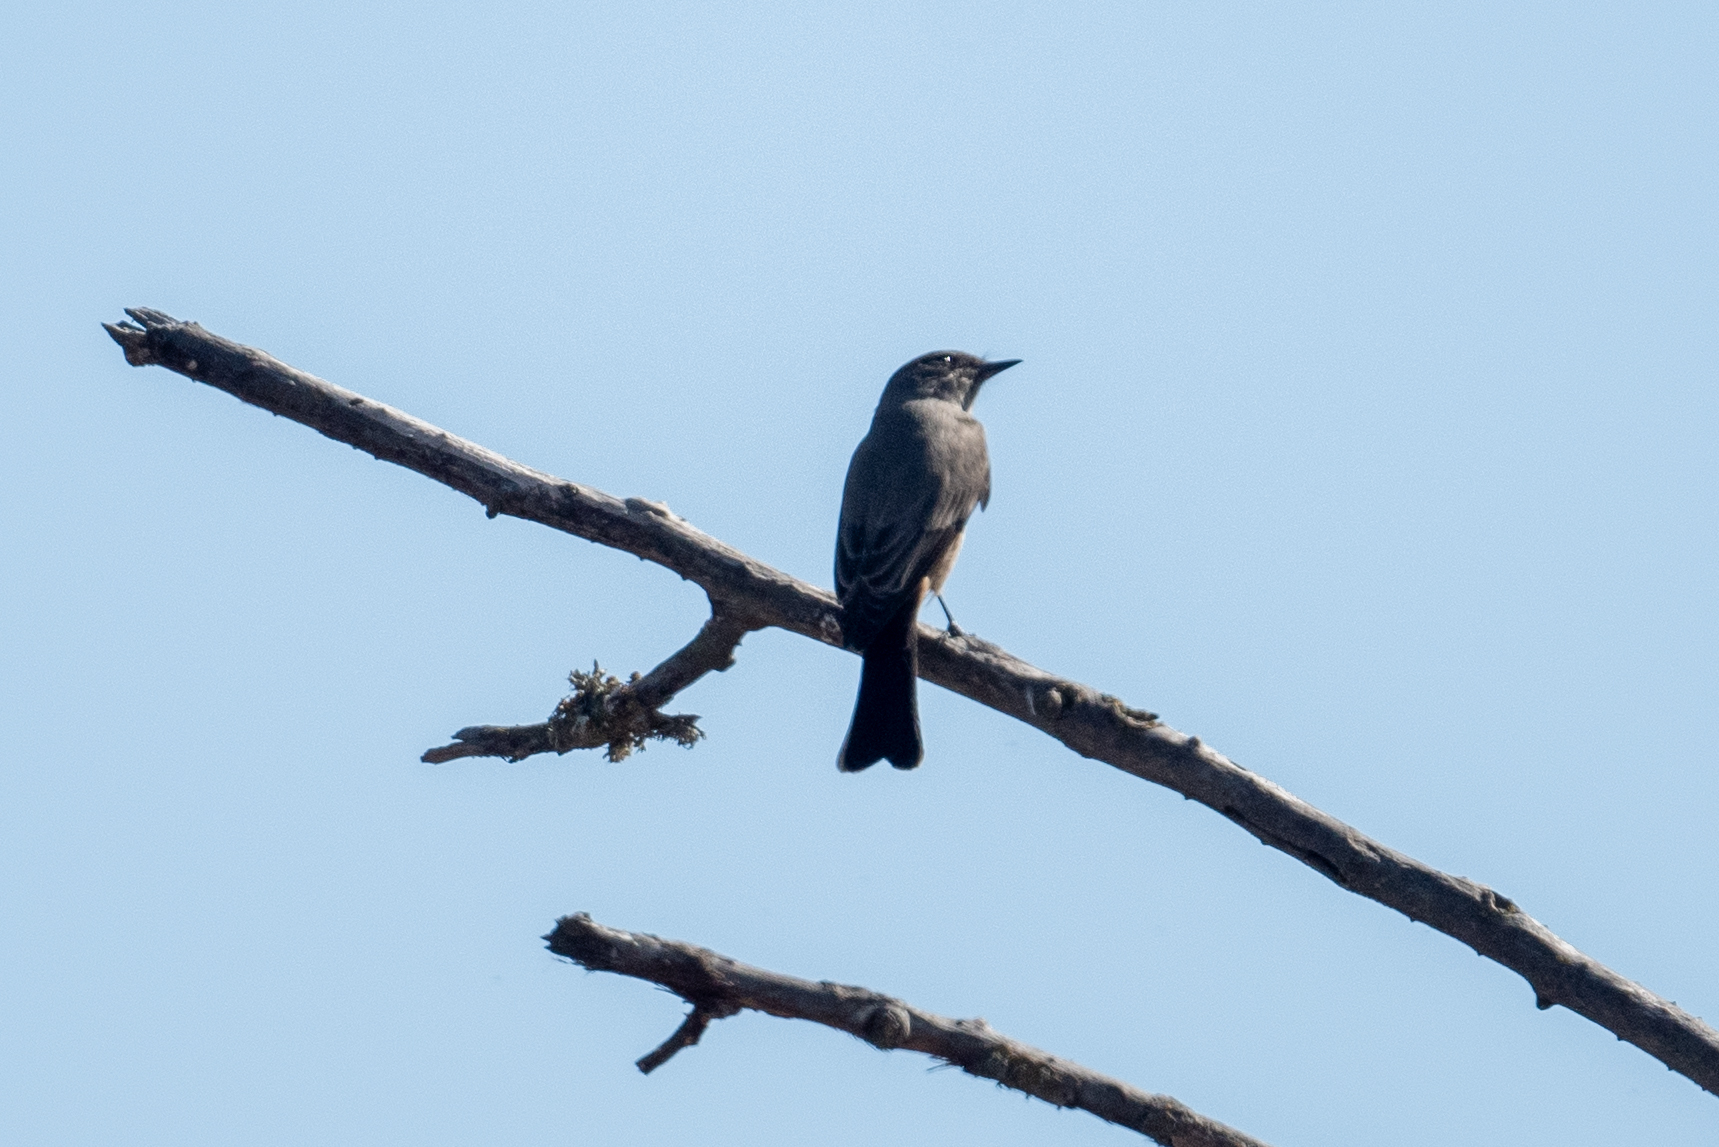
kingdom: Animalia
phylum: Chordata
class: Aves
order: Passeriformes
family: Tyrannidae
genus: Sayornis
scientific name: Sayornis saya
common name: Say's phoebe
